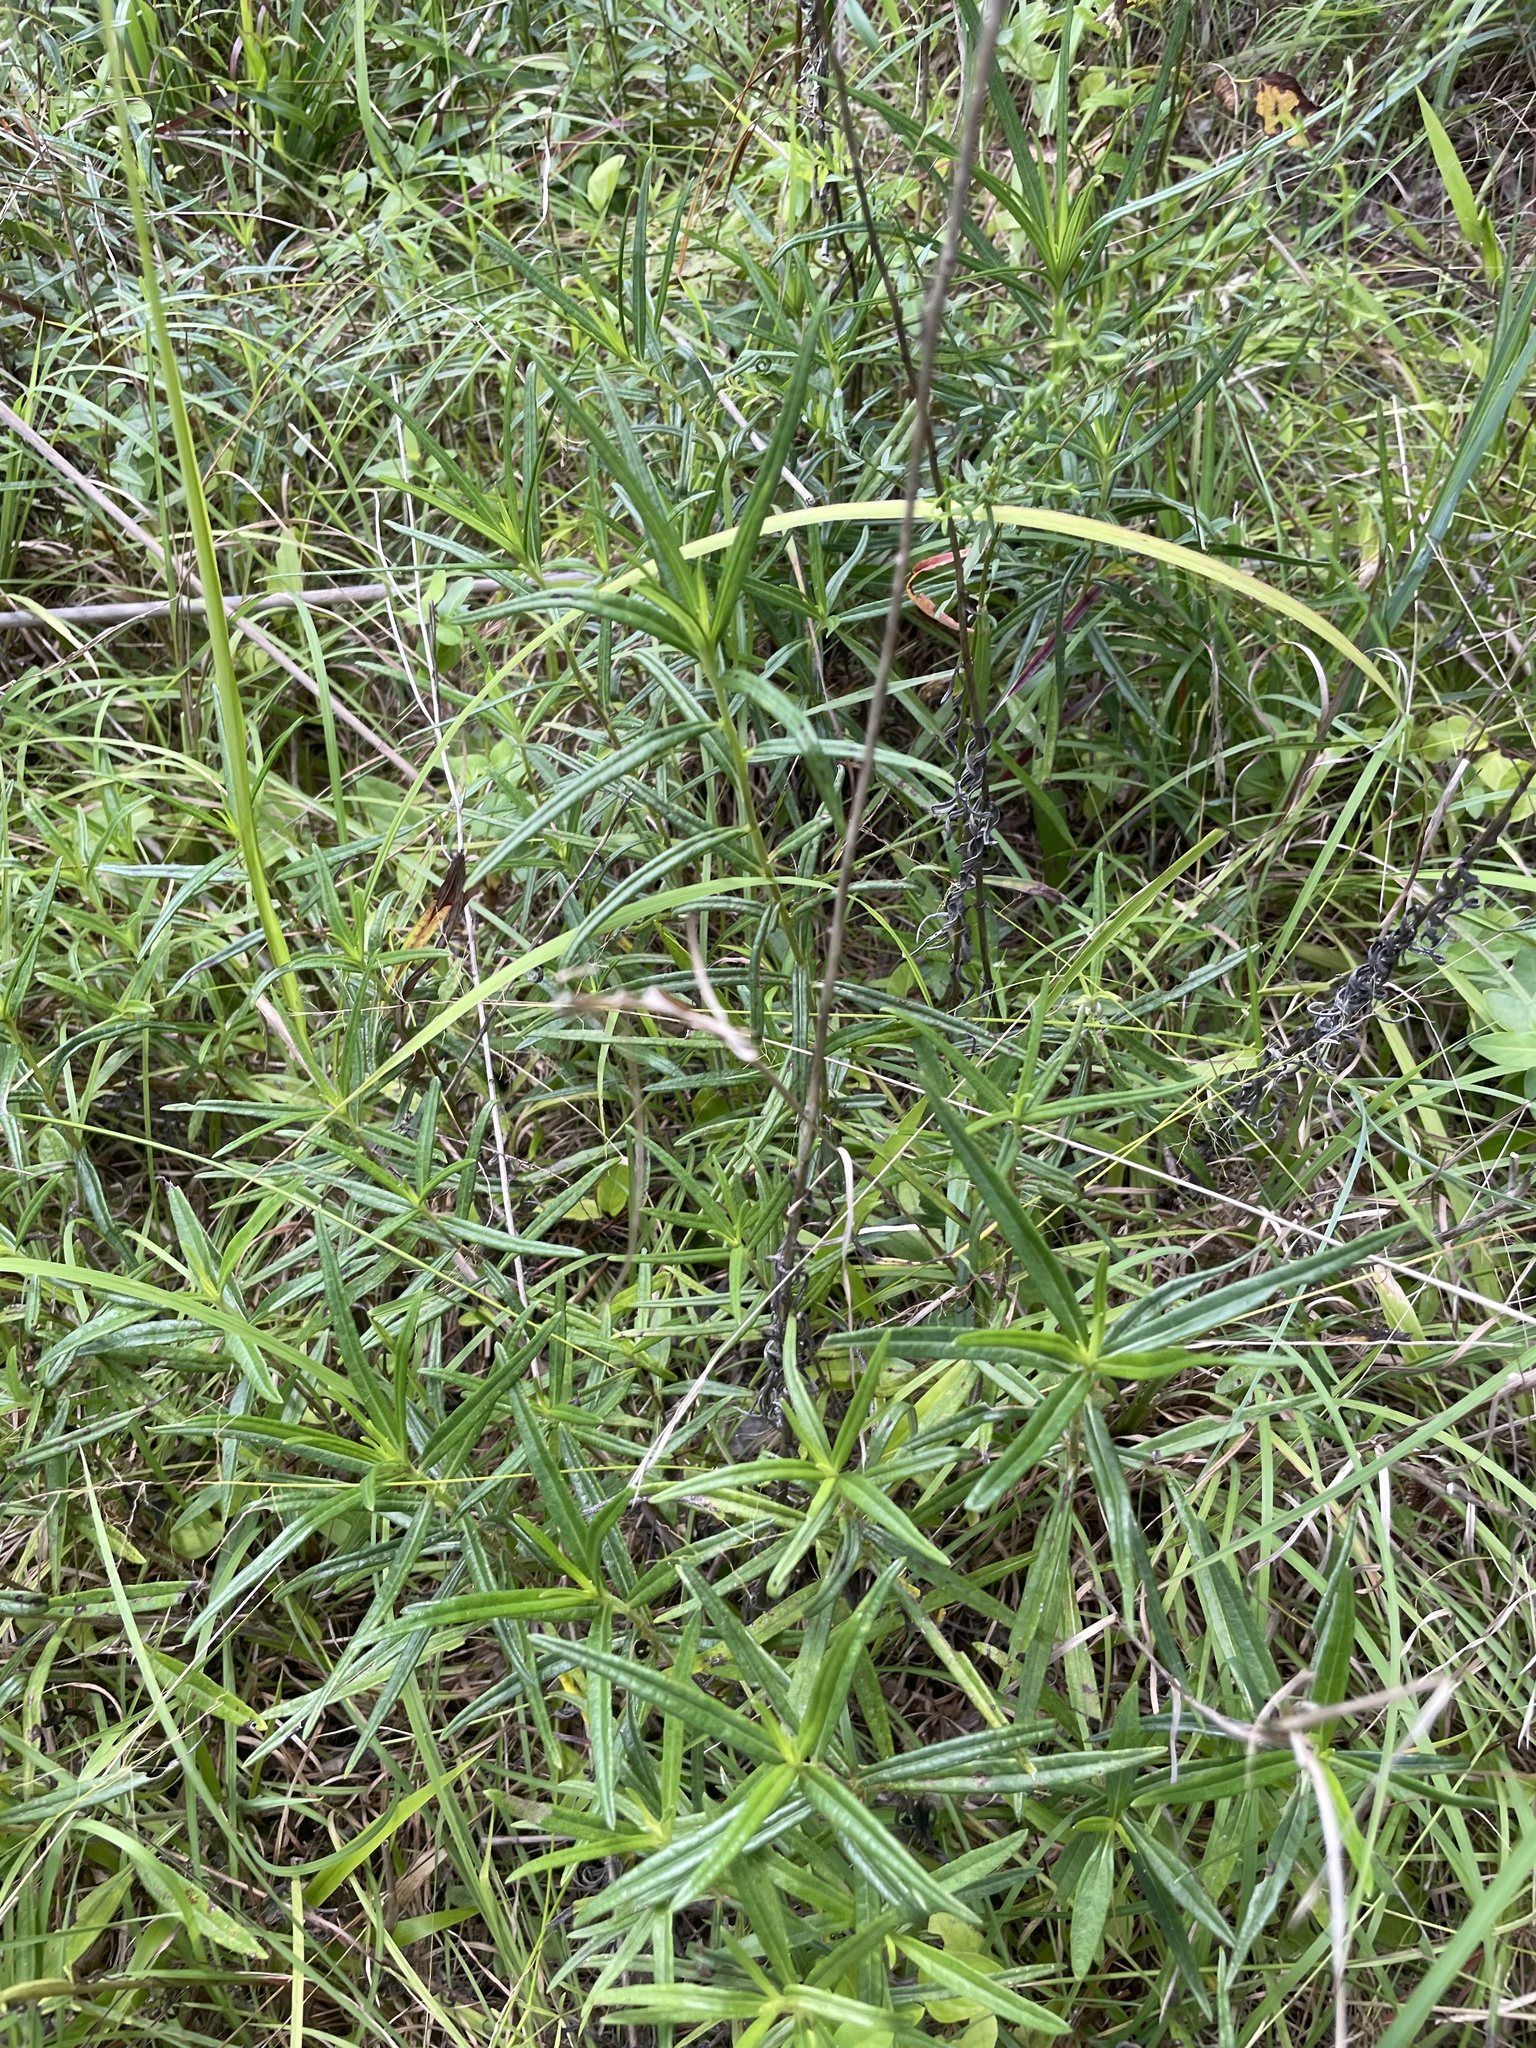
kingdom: Plantae
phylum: Tracheophyta
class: Magnoliopsida
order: Asterales
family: Asteraceae
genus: Helianthus
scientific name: Helianthus angustifolius
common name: Swamp sunflower
